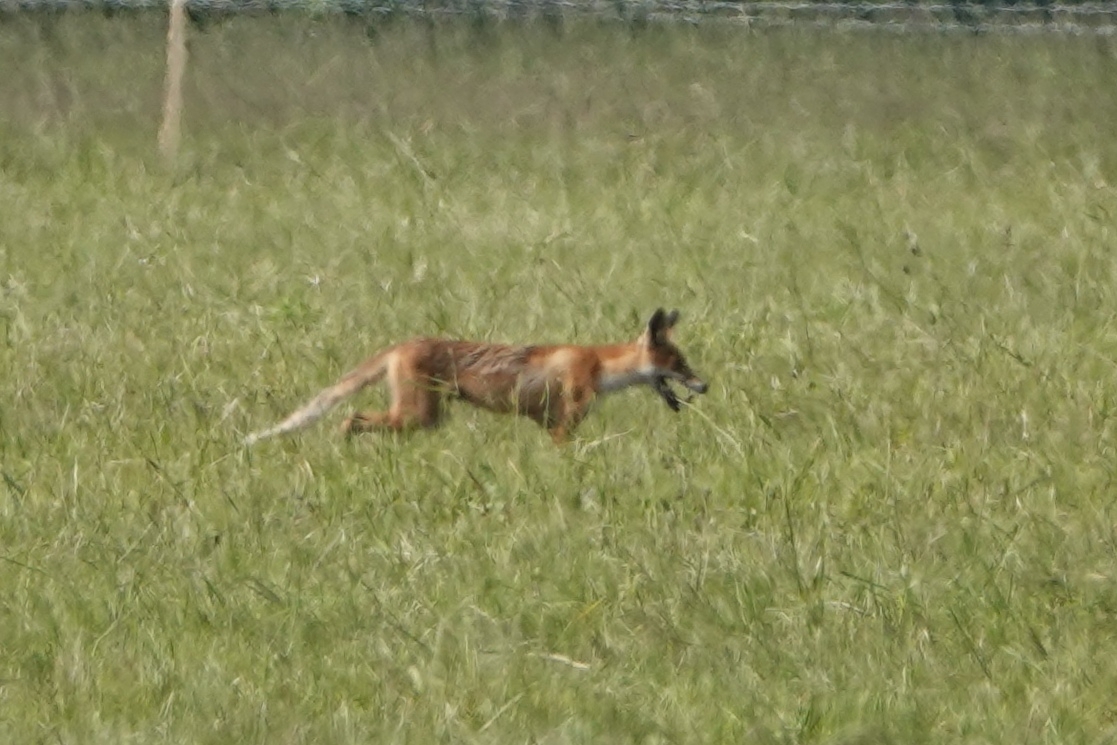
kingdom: Animalia
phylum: Chordata
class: Mammalia
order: Carnivora
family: Canidae
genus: Vulpes
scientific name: Vulpes vulpes
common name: Red fox
